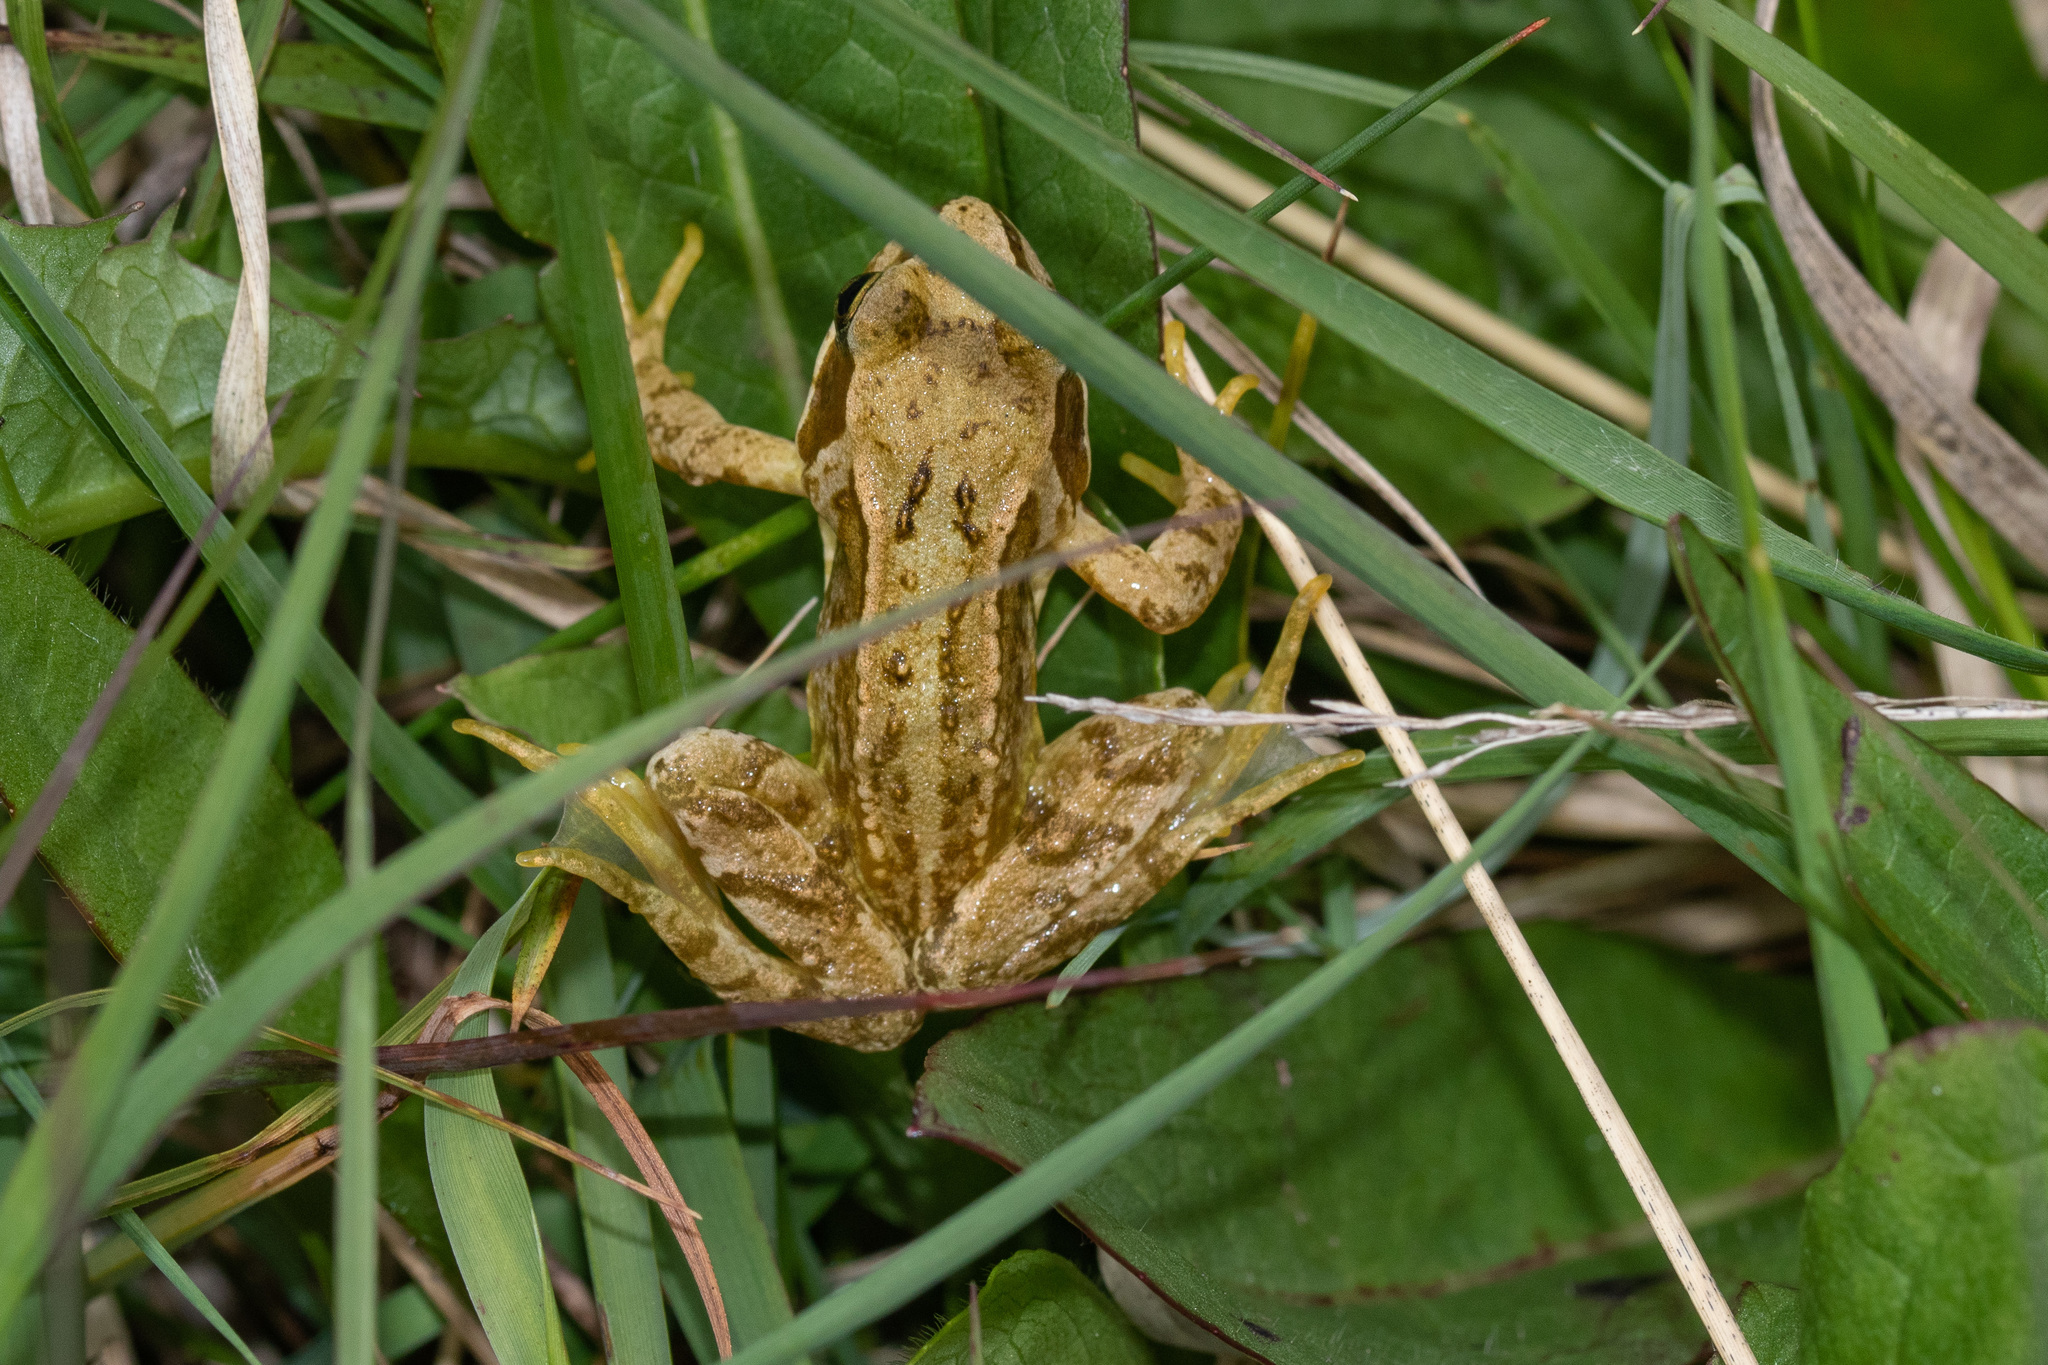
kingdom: Animalia
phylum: Chordata
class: Amphibia
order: Anura
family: Ranidae
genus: Rana
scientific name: Rana temporaria
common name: Common frog
